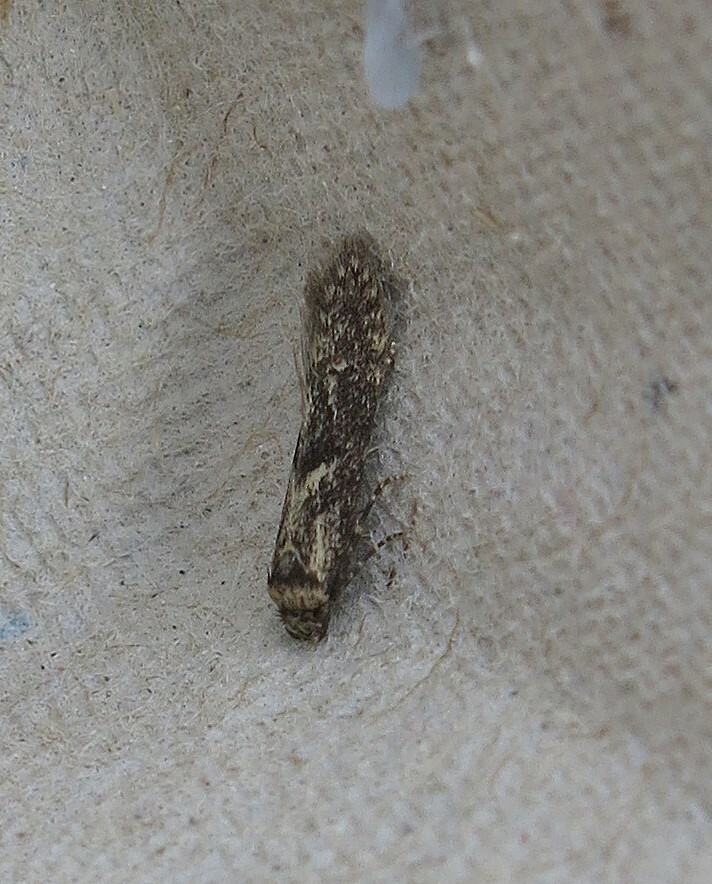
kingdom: Animalia
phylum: Arthropoda
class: Insecta
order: Lepidoptera
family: Blastobasidae
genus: Blastobasis
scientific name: Blastobasis adustella
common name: Dingy dowd
